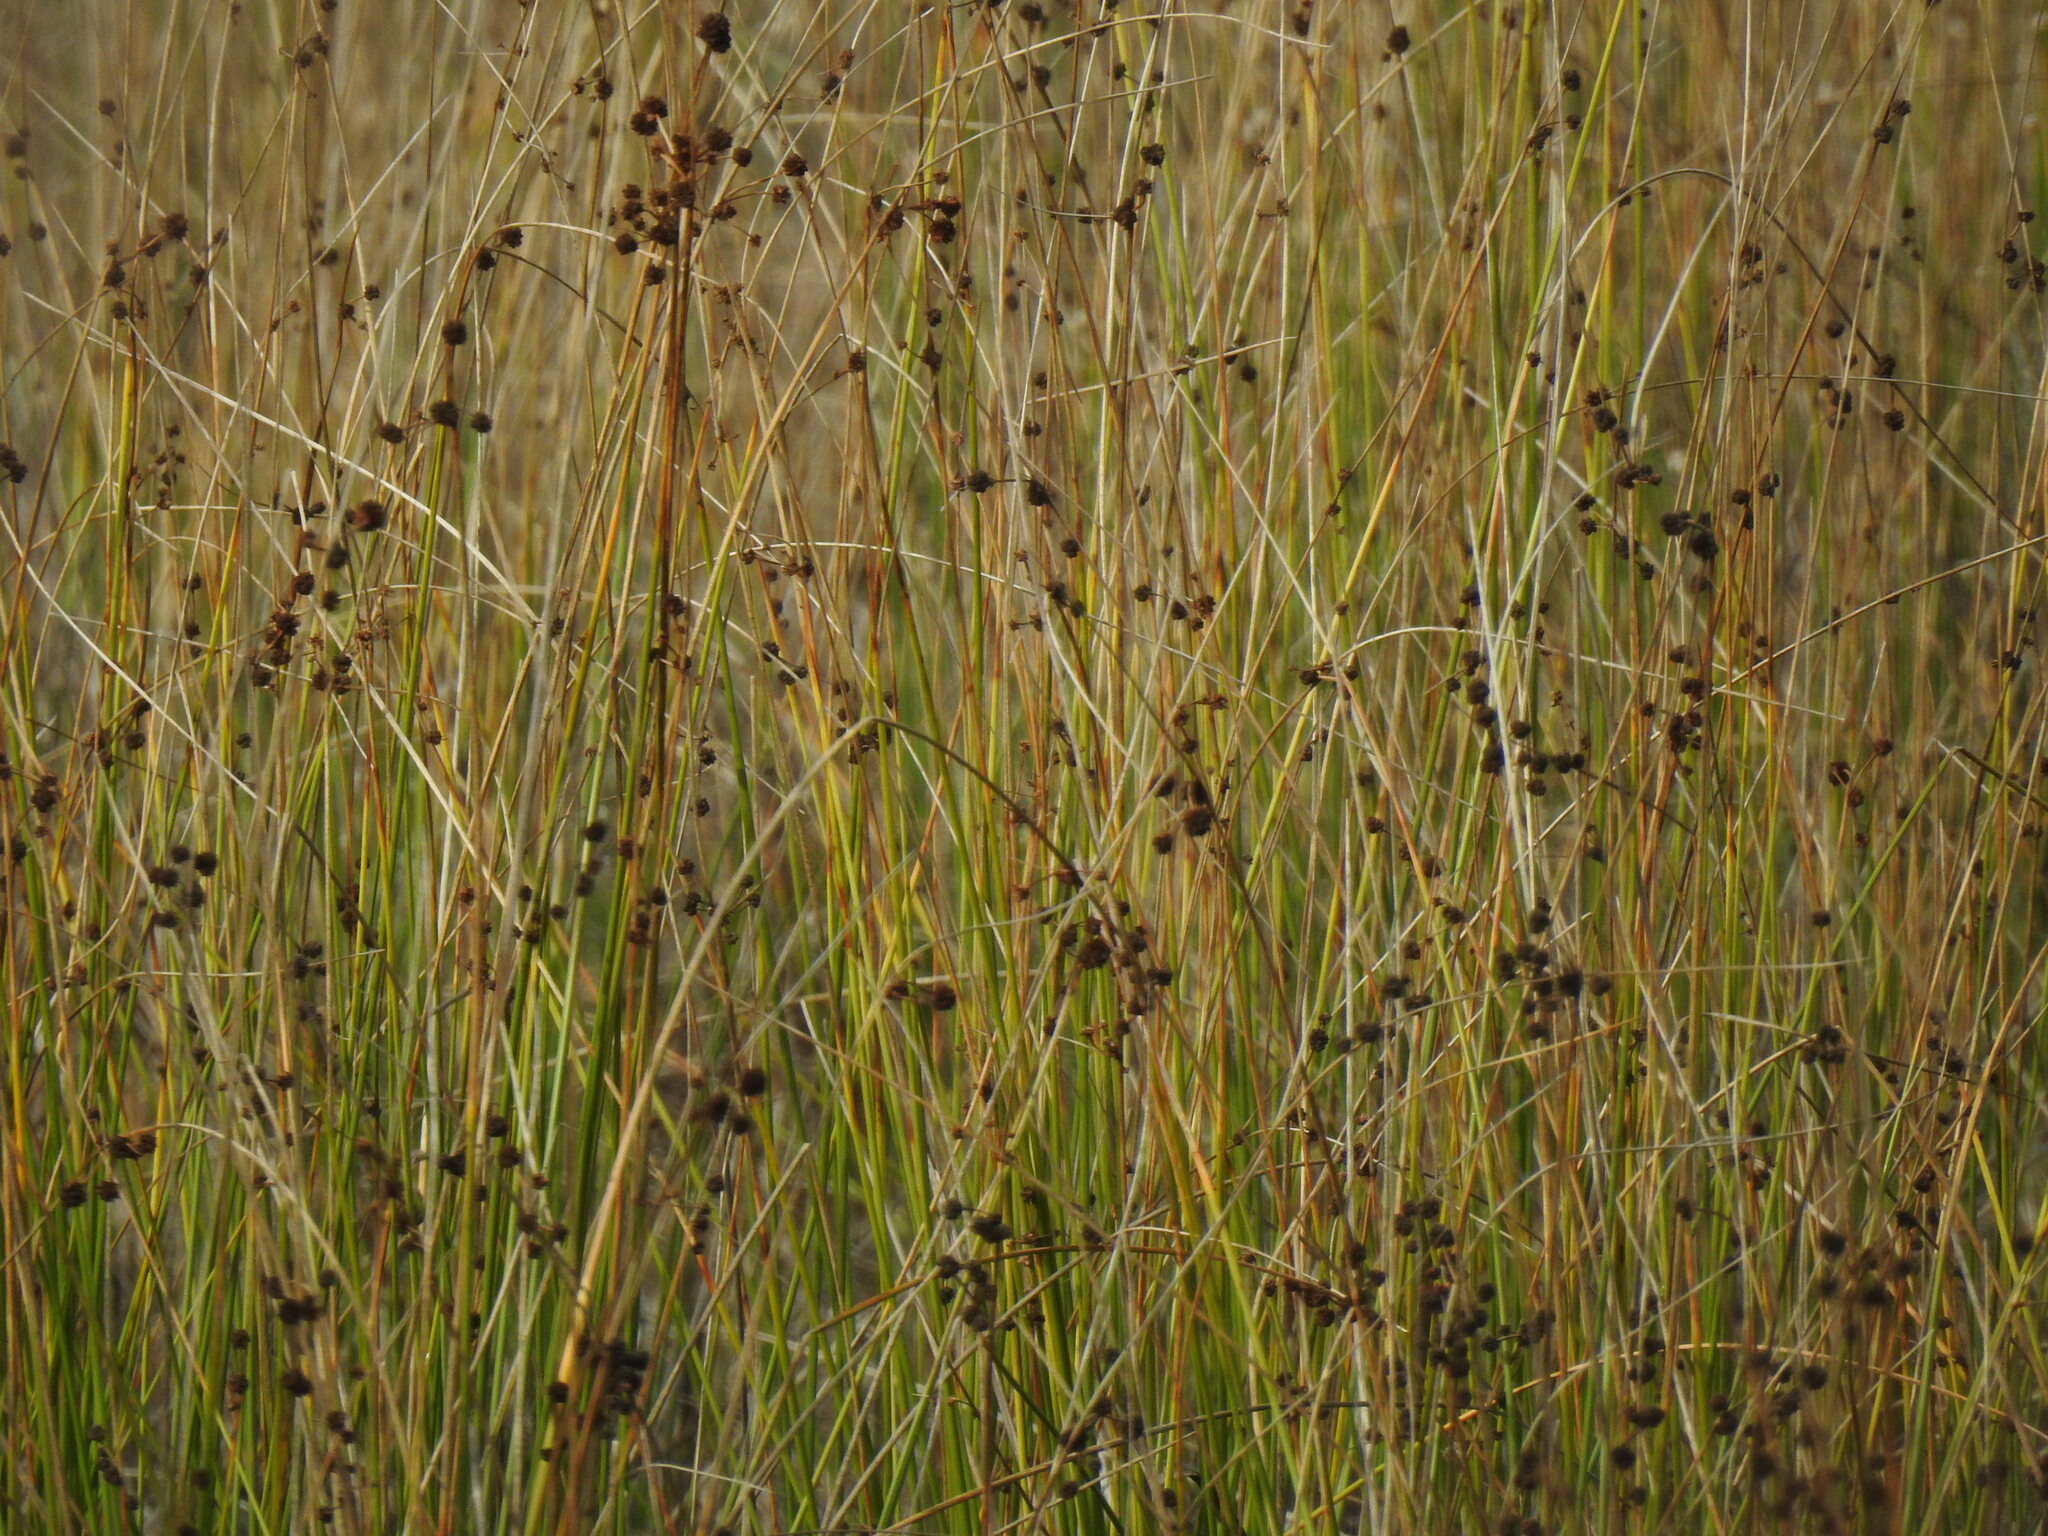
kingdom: Plantae
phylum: Tracheophyta
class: Liliopsida
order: Poales
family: Cyperaceae
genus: Scirpoides
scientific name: Scirpoides holoschoenus
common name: Round-headed club-rush
